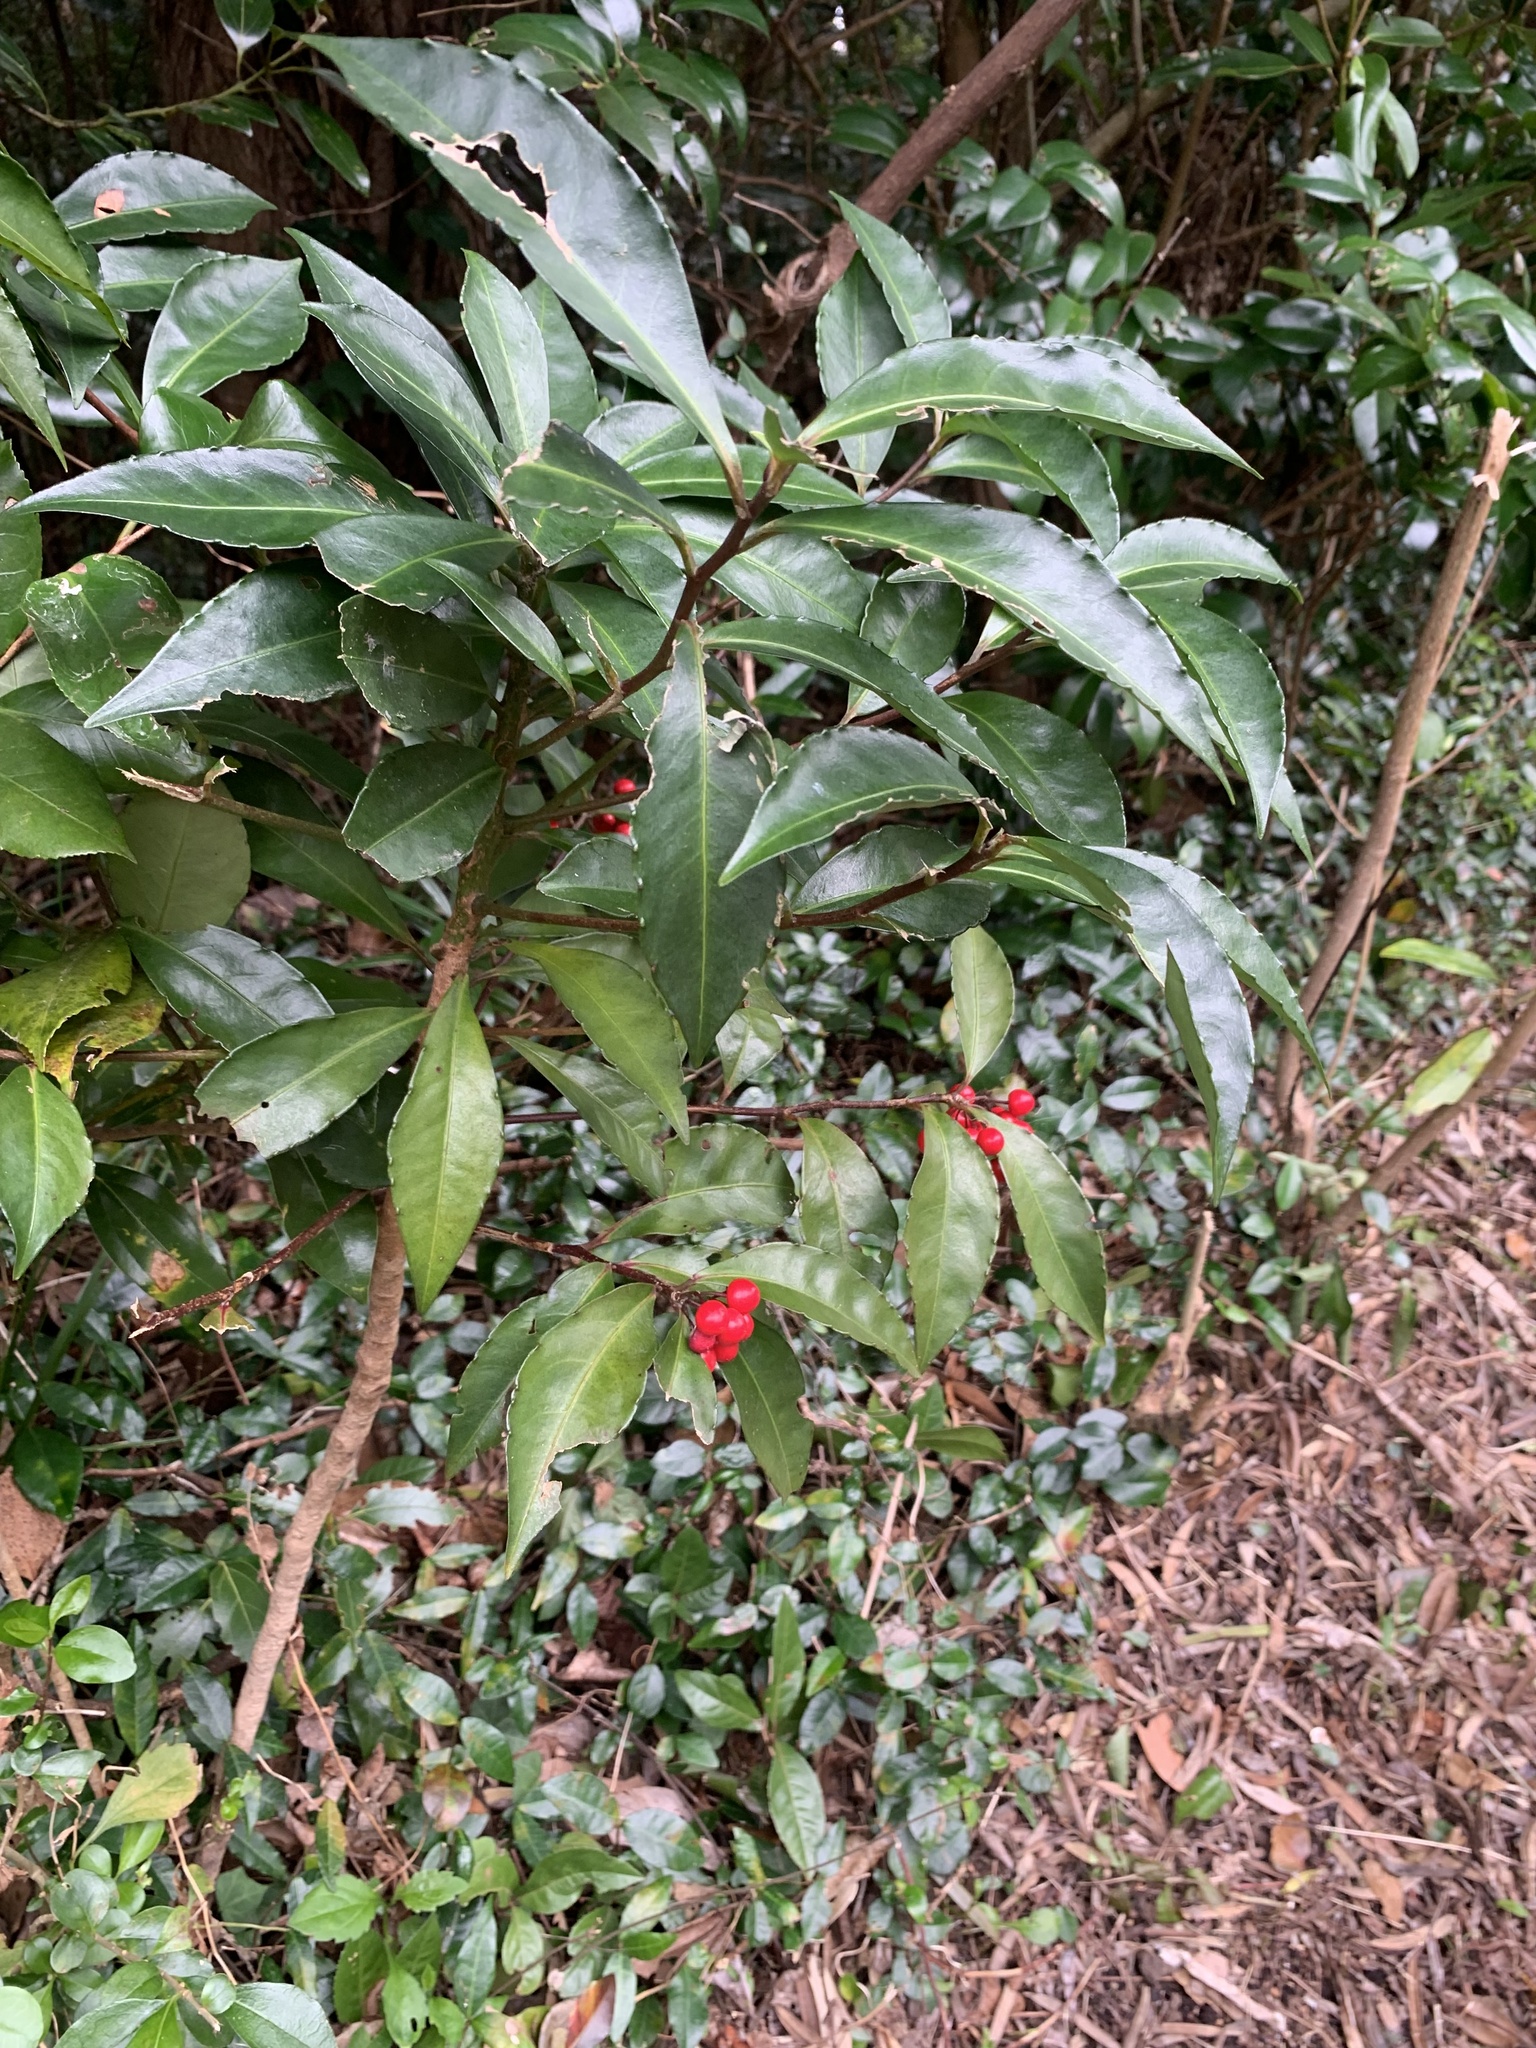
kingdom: Plantae
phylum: Tracheophyta
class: Magnoliopsida
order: Ericales
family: Primulaceae
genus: Ardisia
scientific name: Ardisia crenata
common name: Hen's eyes
